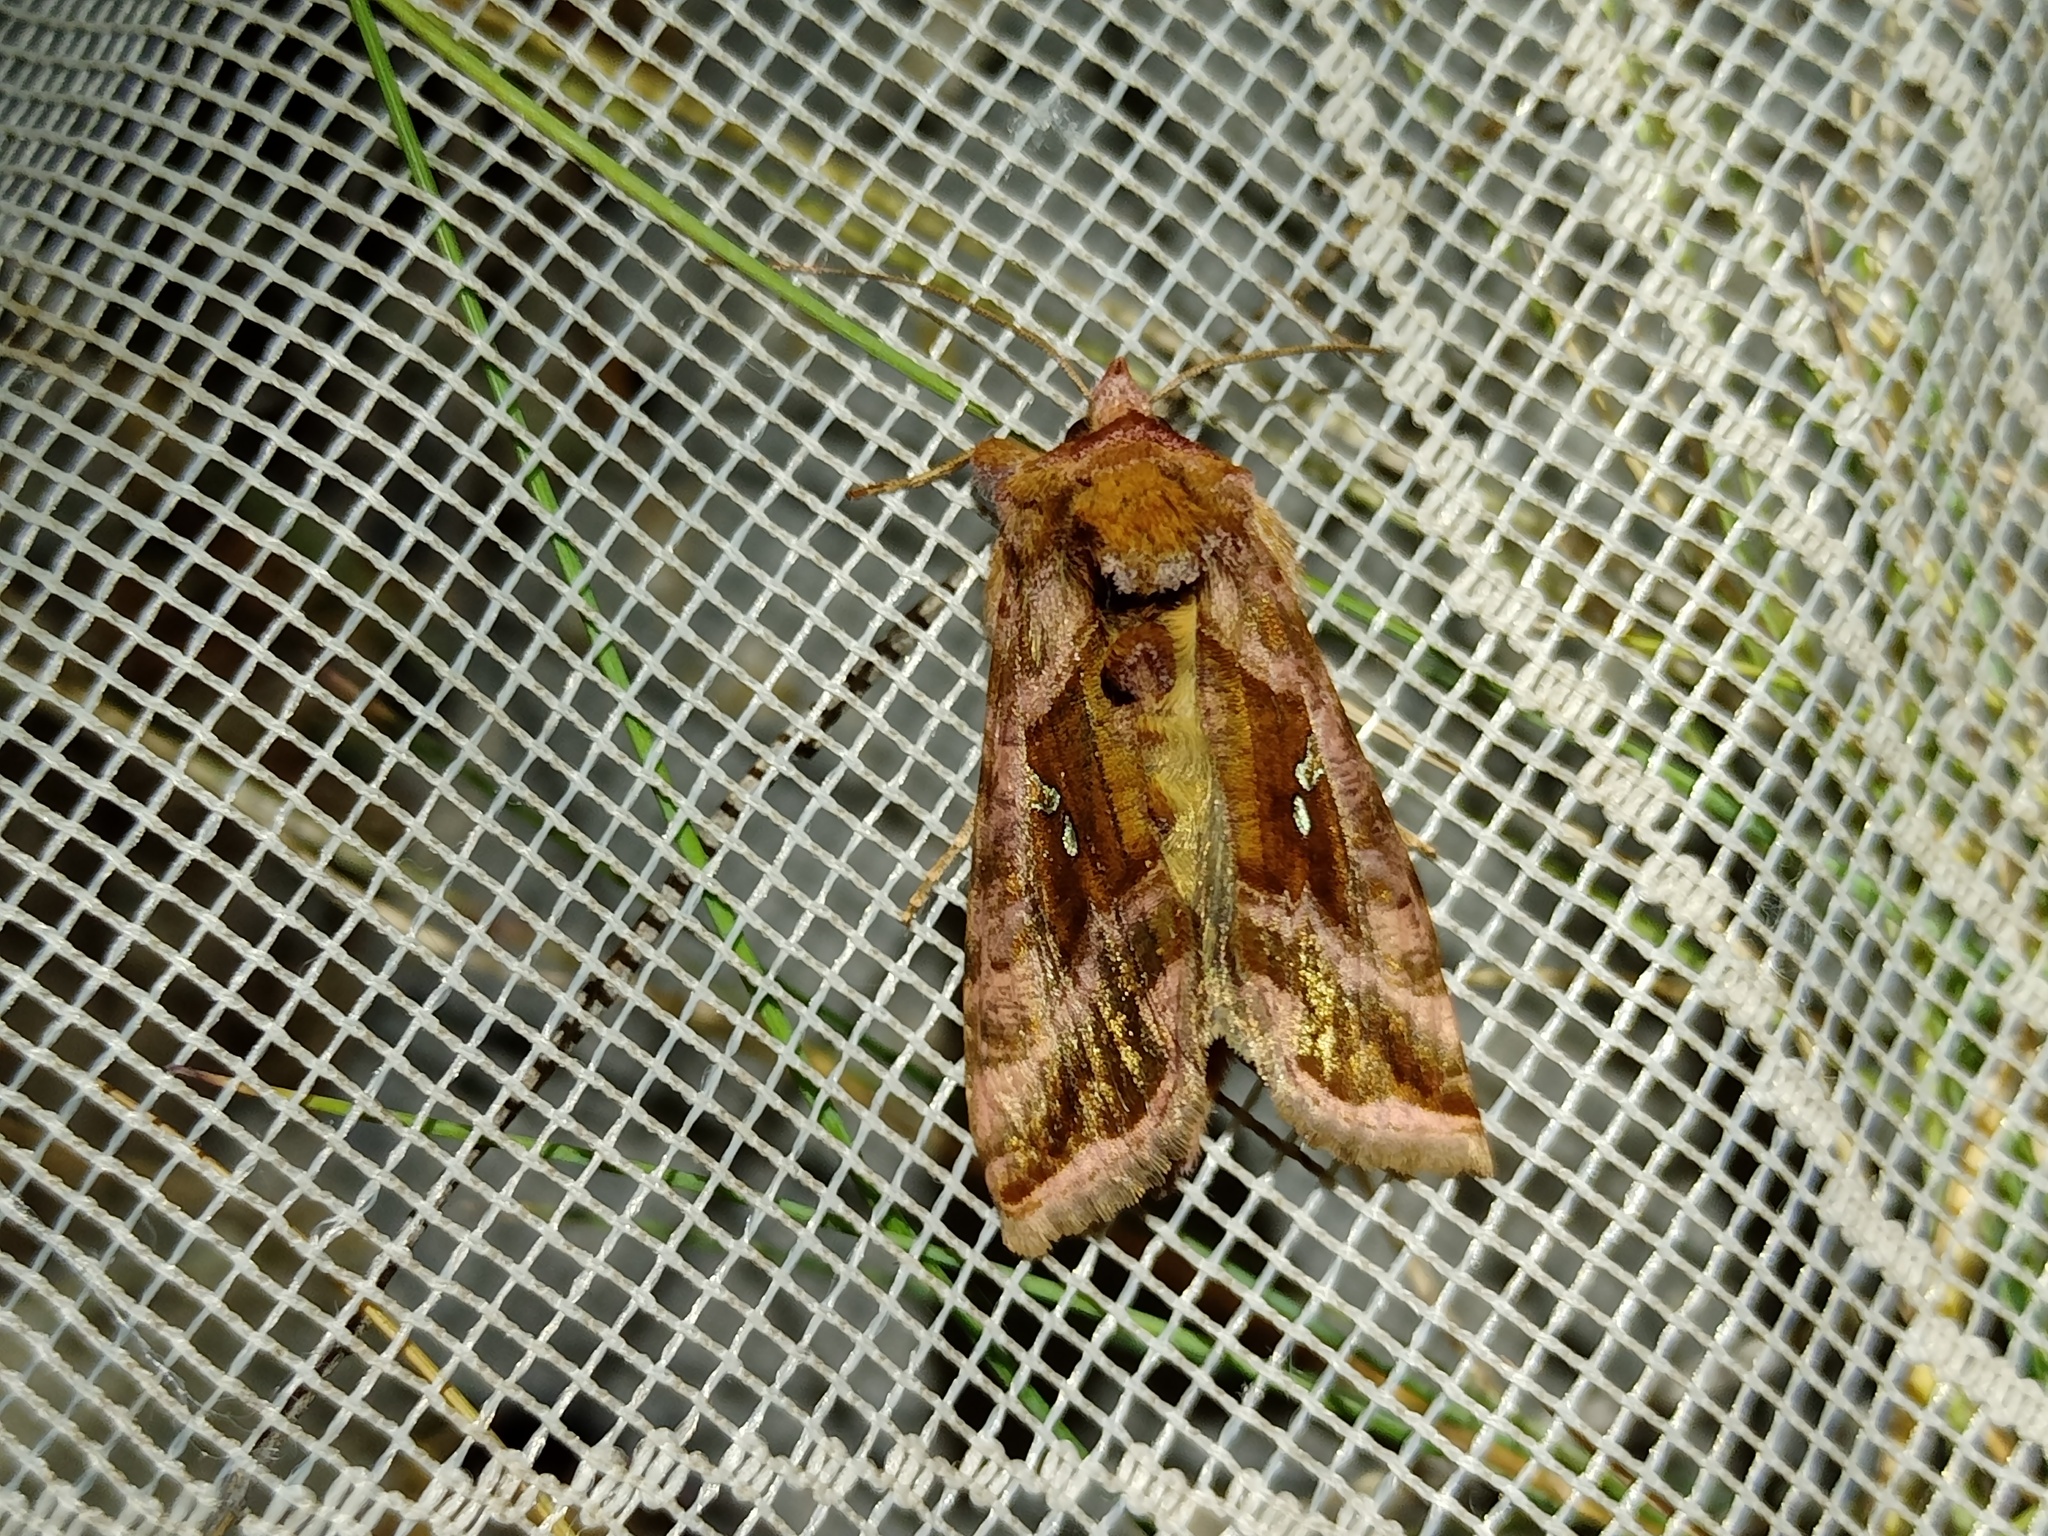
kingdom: Animalia
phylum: Arthropoda
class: Insecta
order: Lepidoptera
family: Noctuidae
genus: Autographa
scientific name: Autographa jota
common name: Plain golden y
